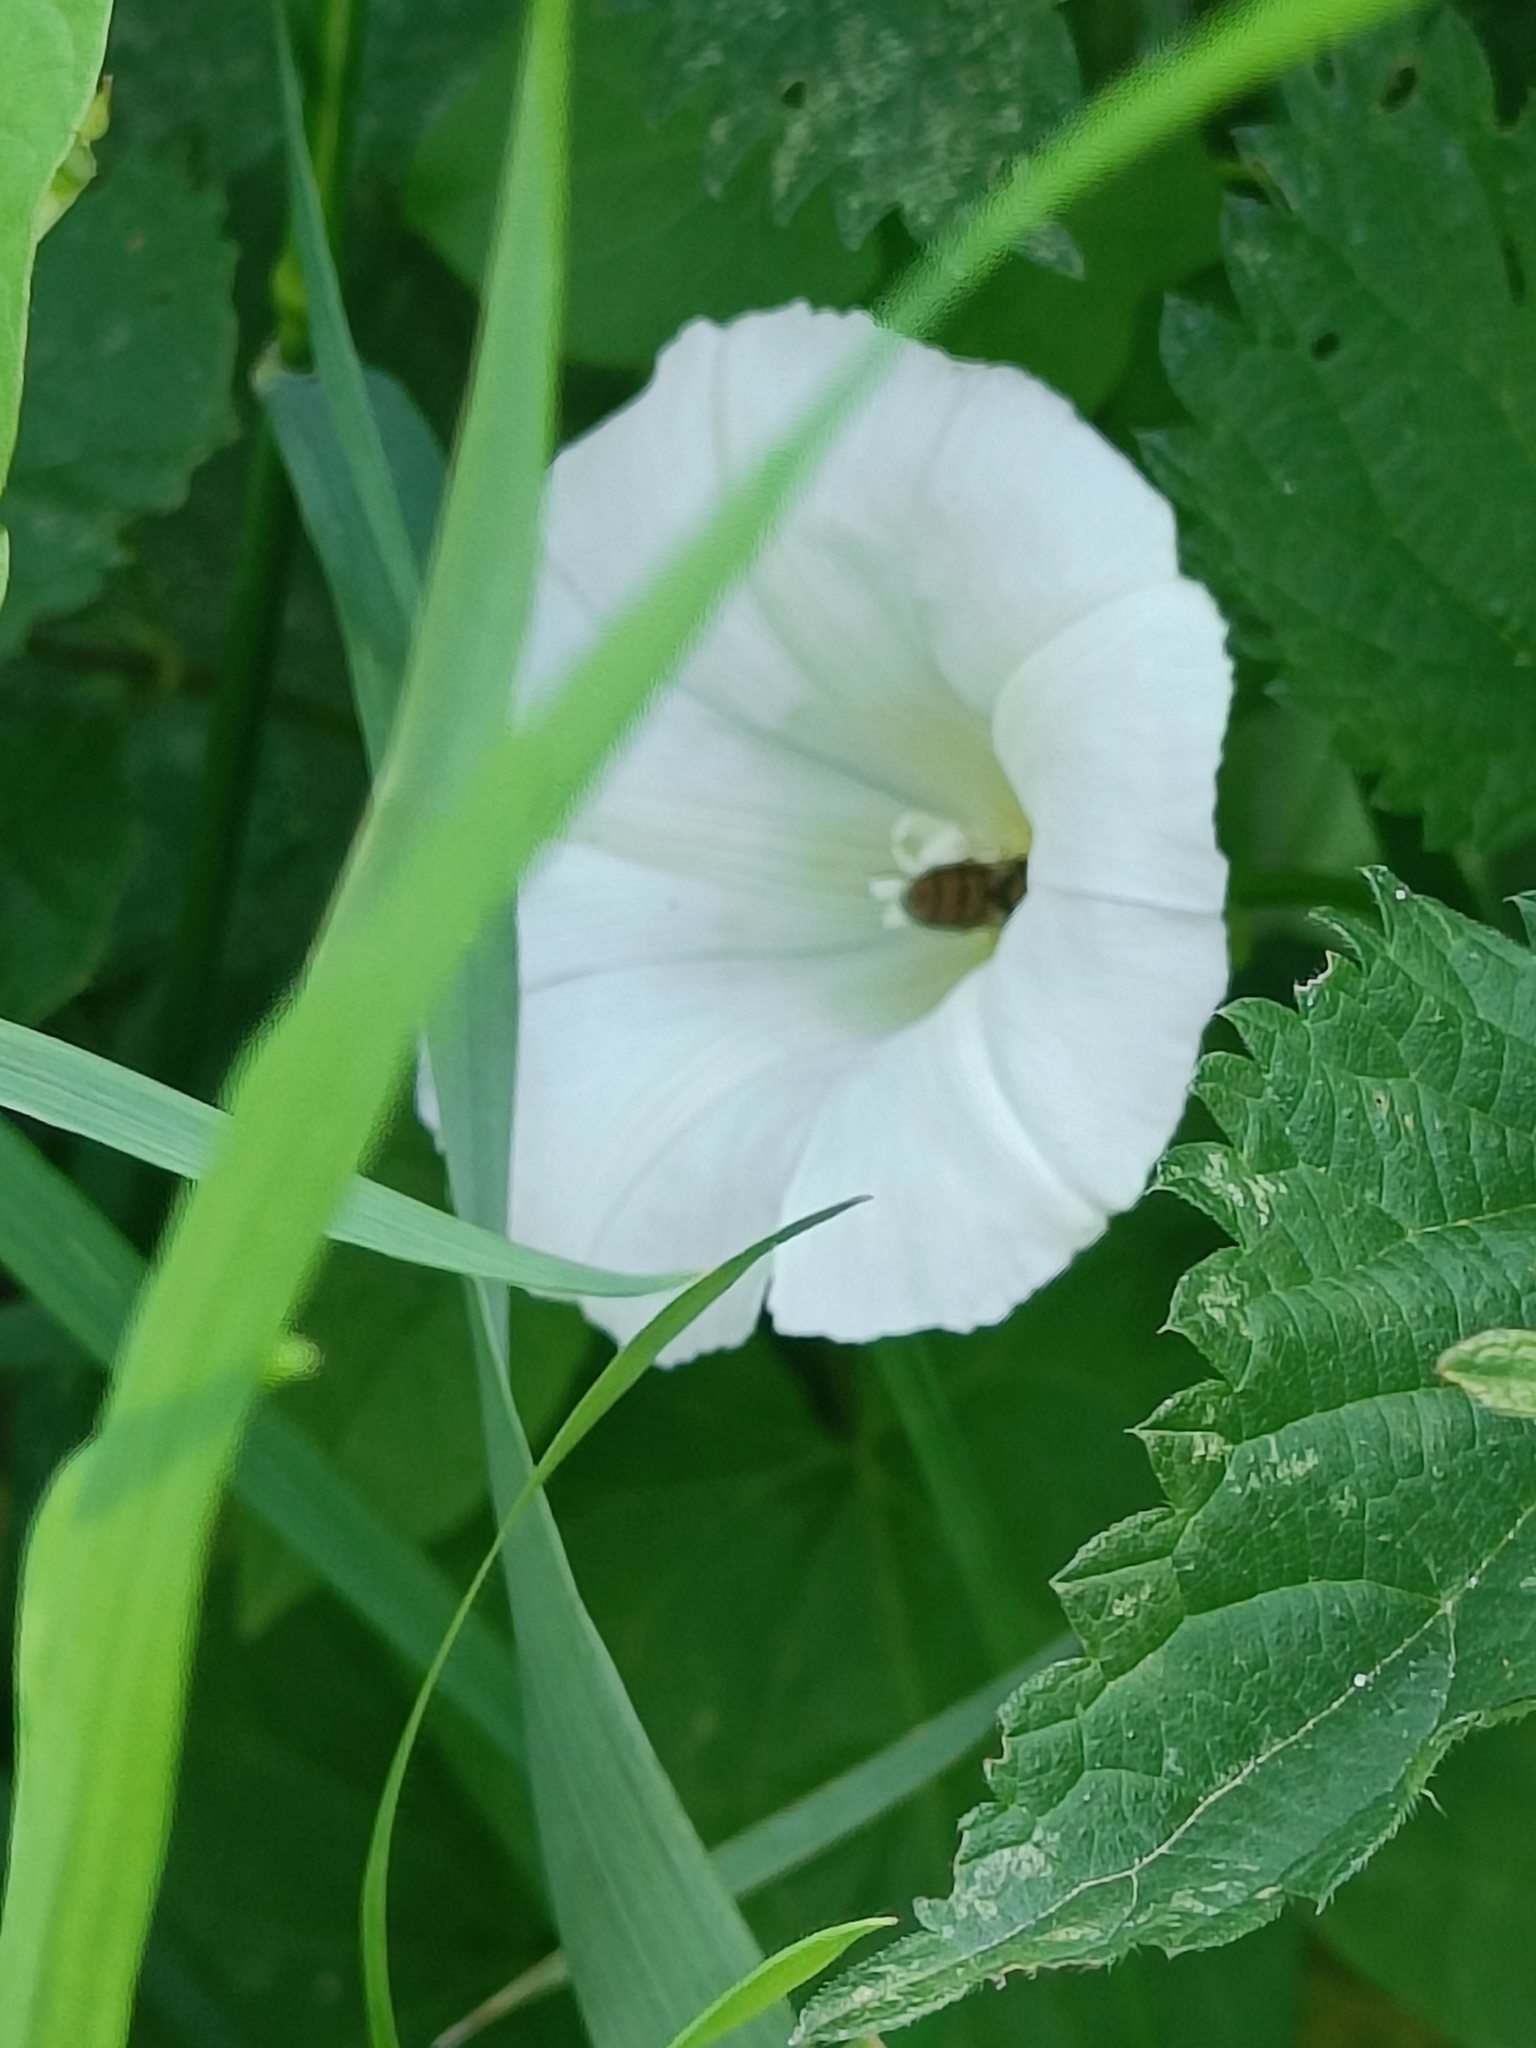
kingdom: Plantae
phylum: Tracheophyta
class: Magnoliopsida
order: Solanales
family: Convolvulaceae
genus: Calystegia
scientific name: Calystegia sepium
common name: Hedge bindweed
